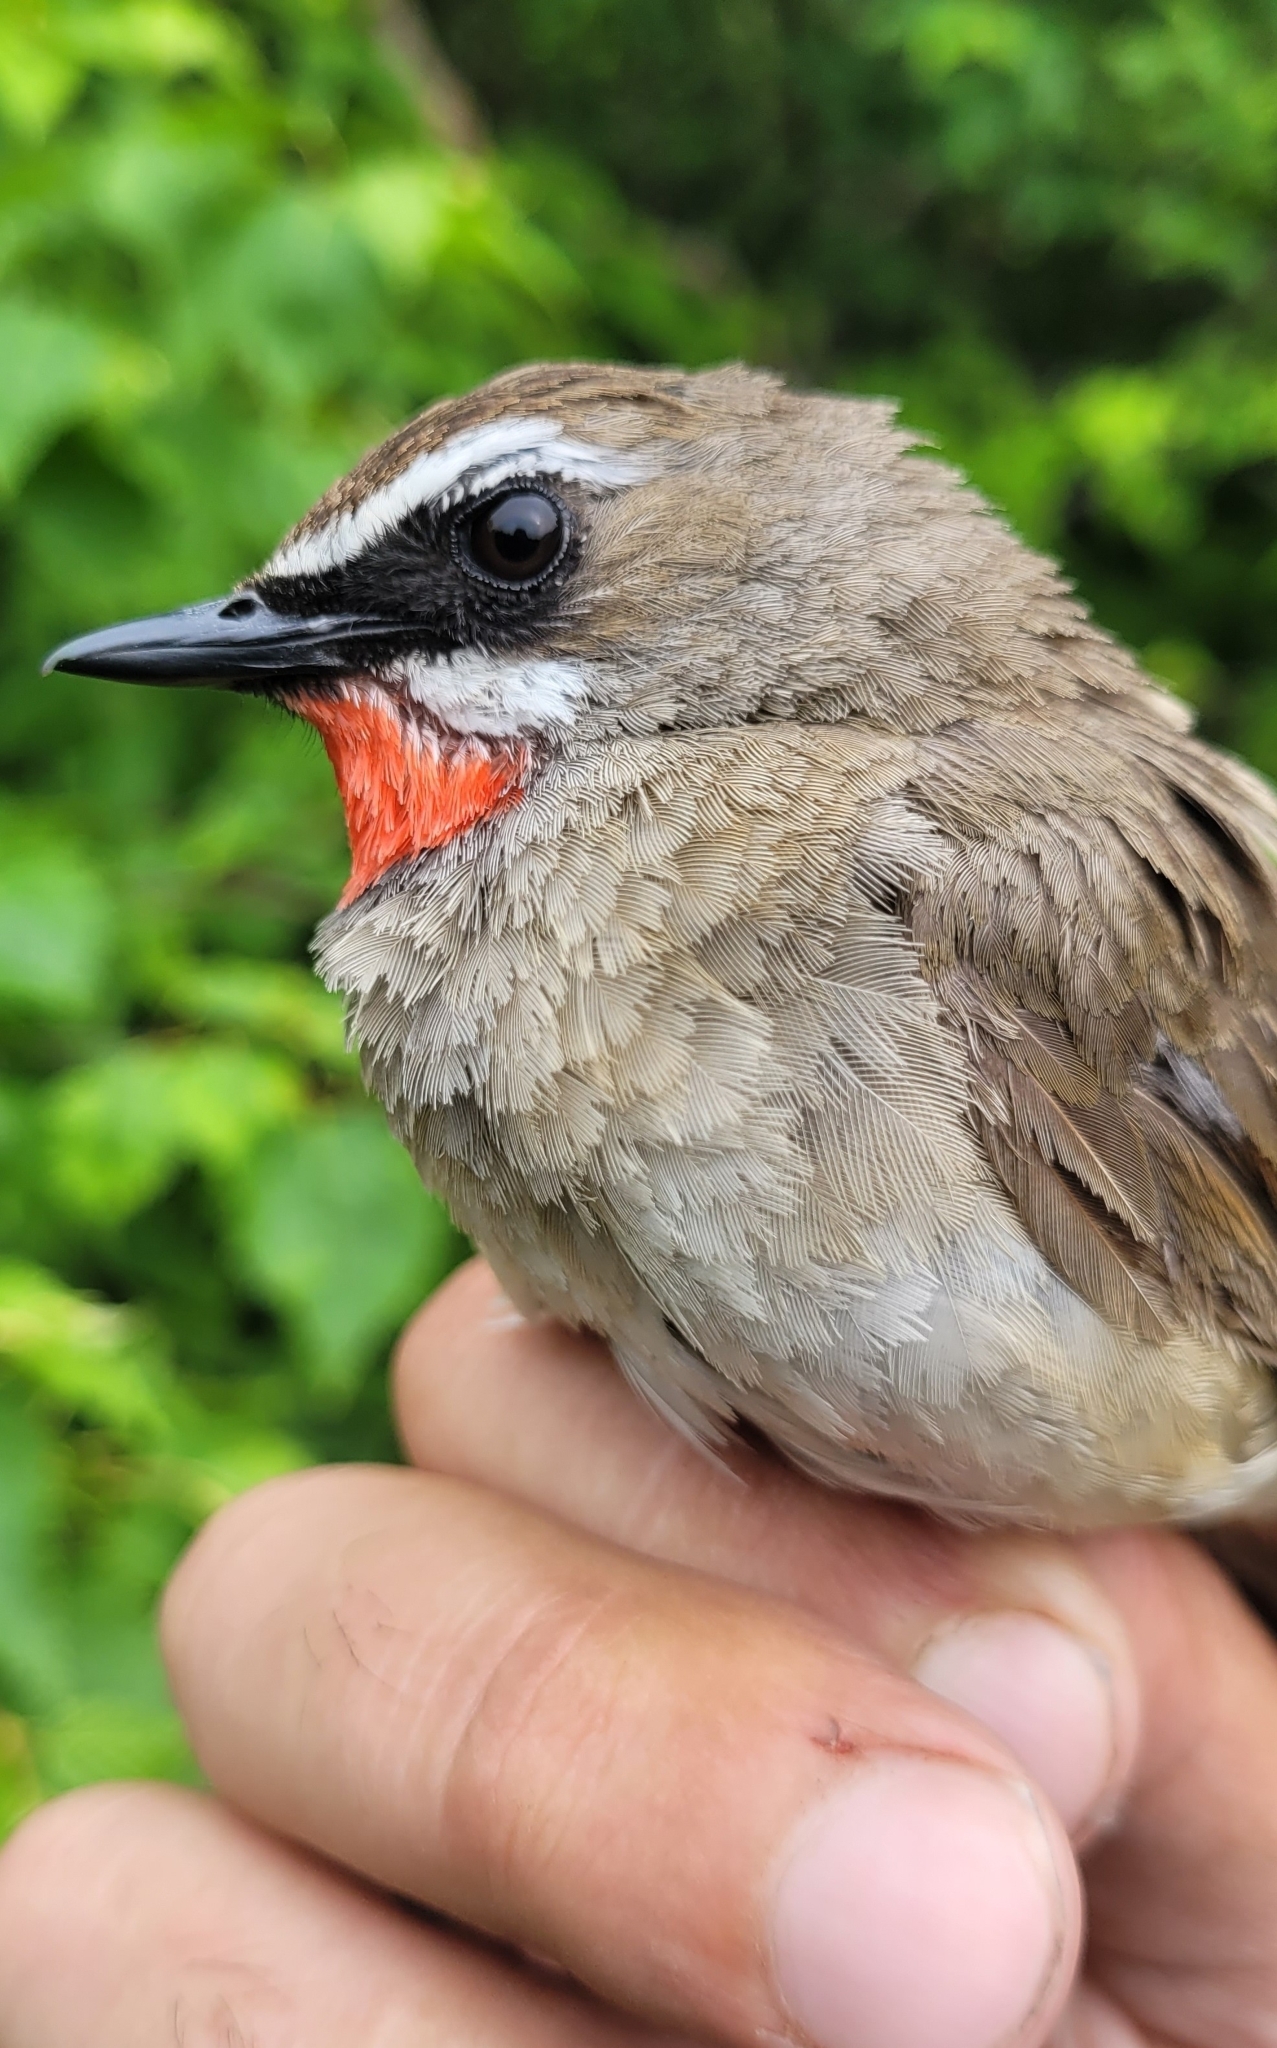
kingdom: Animalia
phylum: Chordata
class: Aves
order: Passeriformes
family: Muscicapidae
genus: Luscinia
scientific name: Luscinia calliope
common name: Siberian rubythroat
